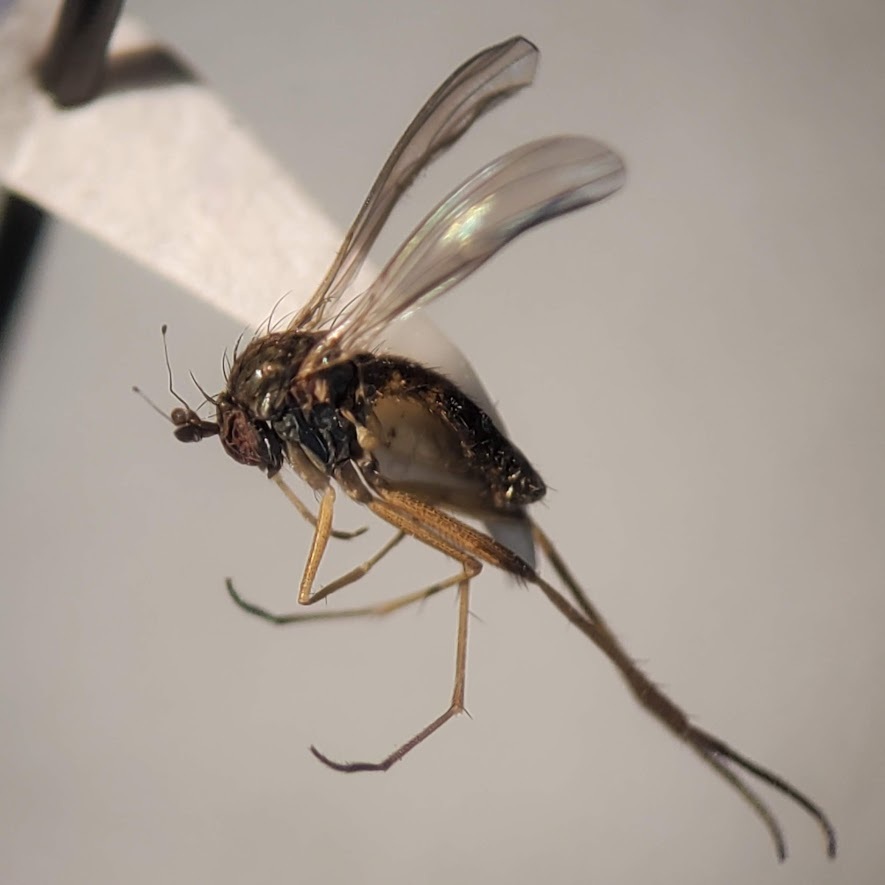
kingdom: Animalia
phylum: Arthropoda
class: Insecta
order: Diptera
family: Dolichopodidae
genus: Calyxochaetus
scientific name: Calyxochaetus
